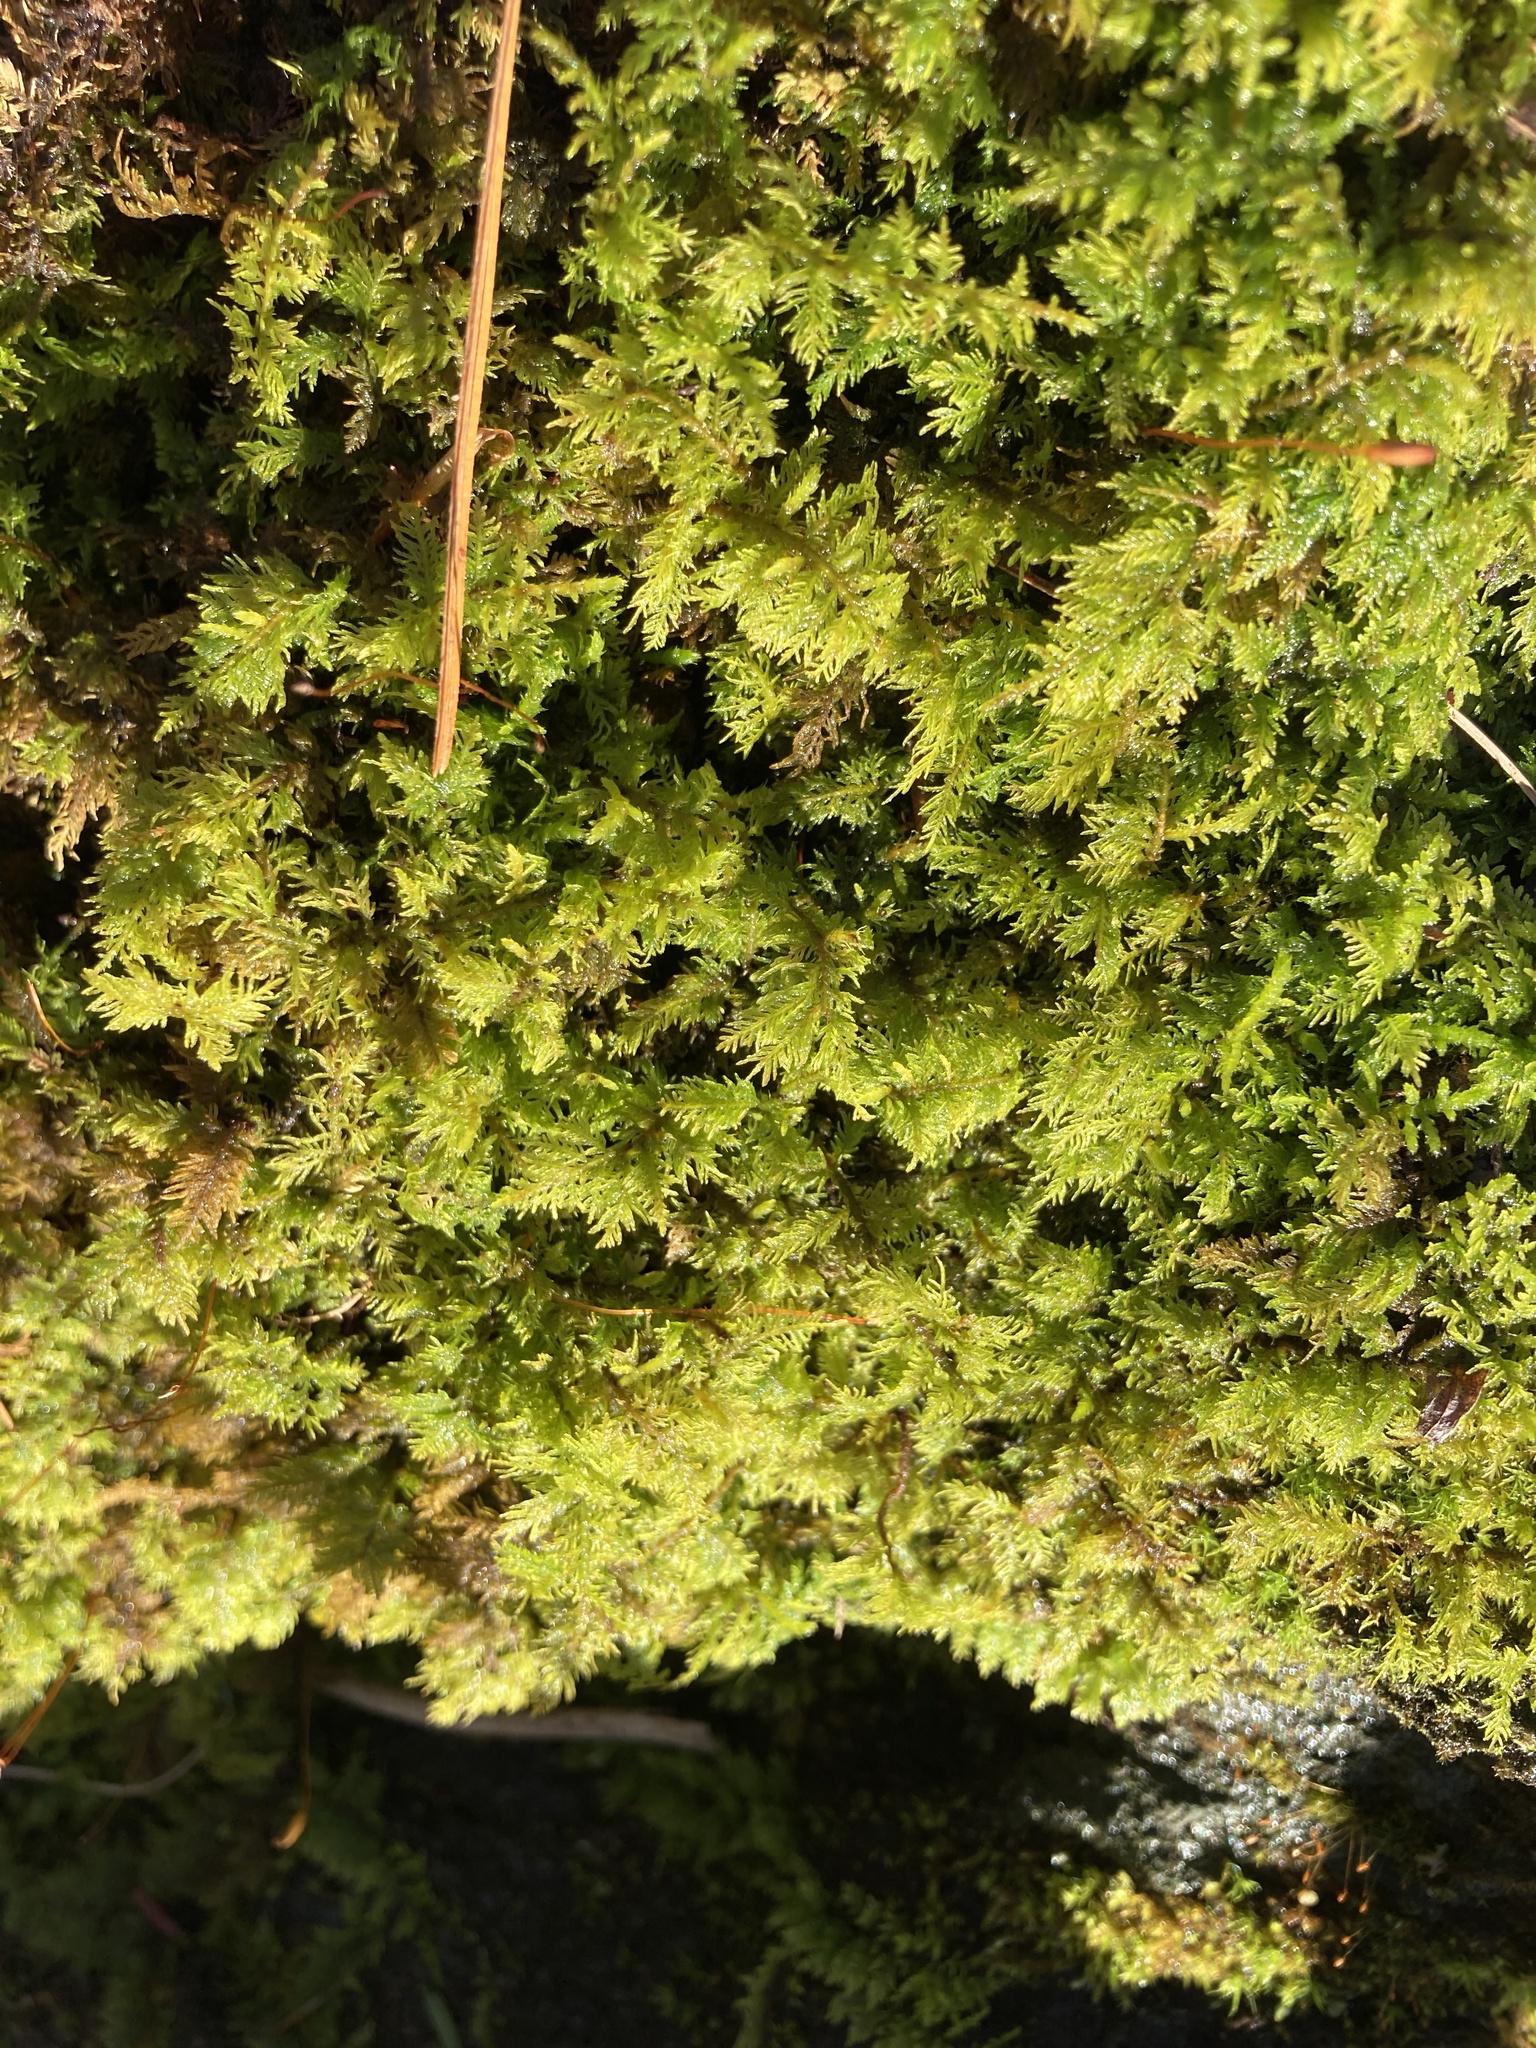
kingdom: Plantae
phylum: Bryophyta
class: Bryopsida
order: Hypnales
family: Thuidiaceae
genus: Thuidium
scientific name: Thuidium delicatulum
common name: Delicate fern moss
